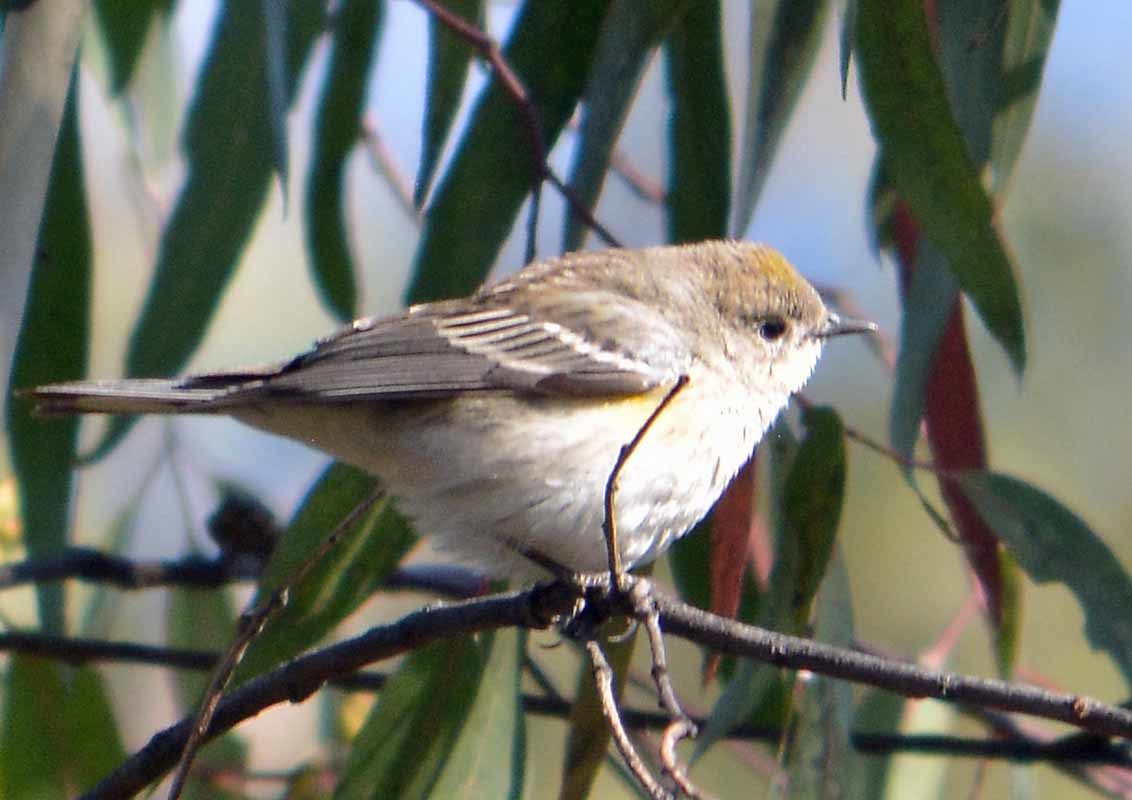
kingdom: Animalia
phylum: Chordata
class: Aves
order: Passeriformes
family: Parulidae
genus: Setophaga
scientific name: Setophaga coronata
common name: Myrtle warbler
